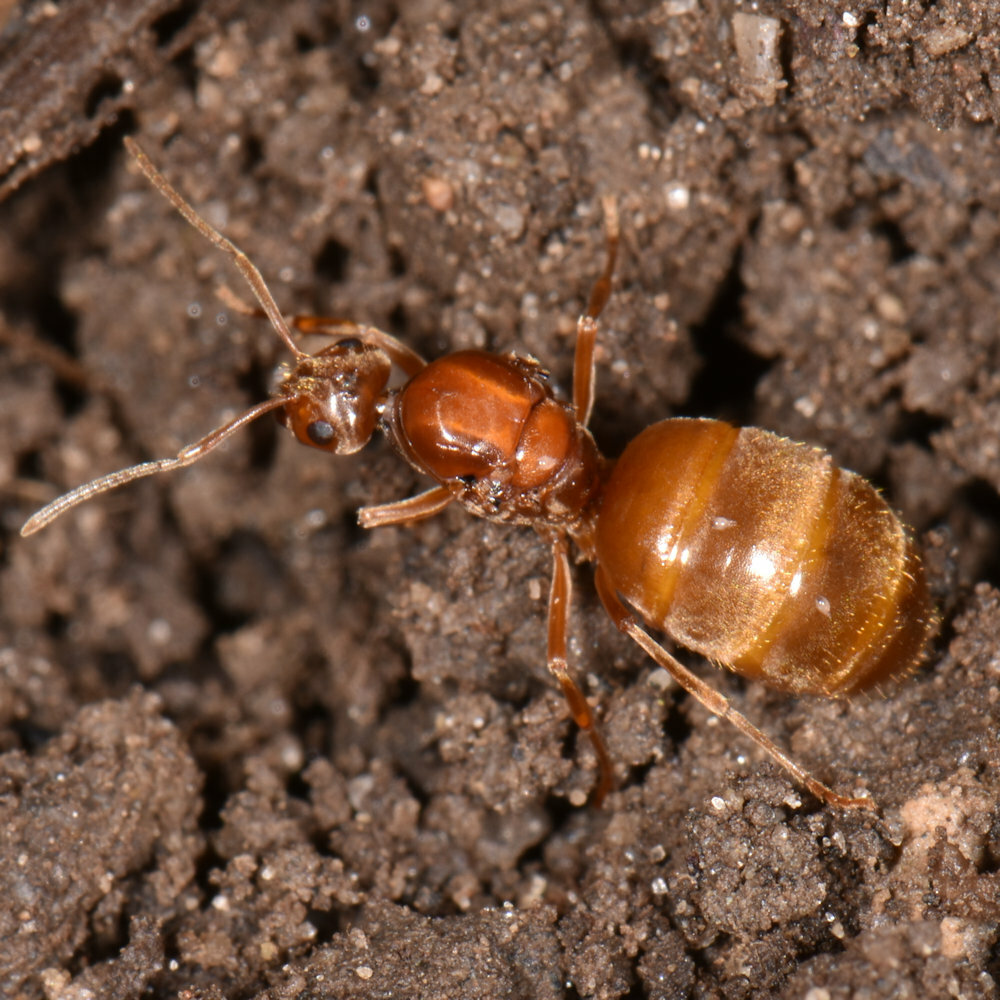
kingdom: Animalia
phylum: Arthropoda
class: Insecta
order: Hymenoptera
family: Formicidae
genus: Prenolepis
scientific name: Prenolepis imparis
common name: Small honey ant
